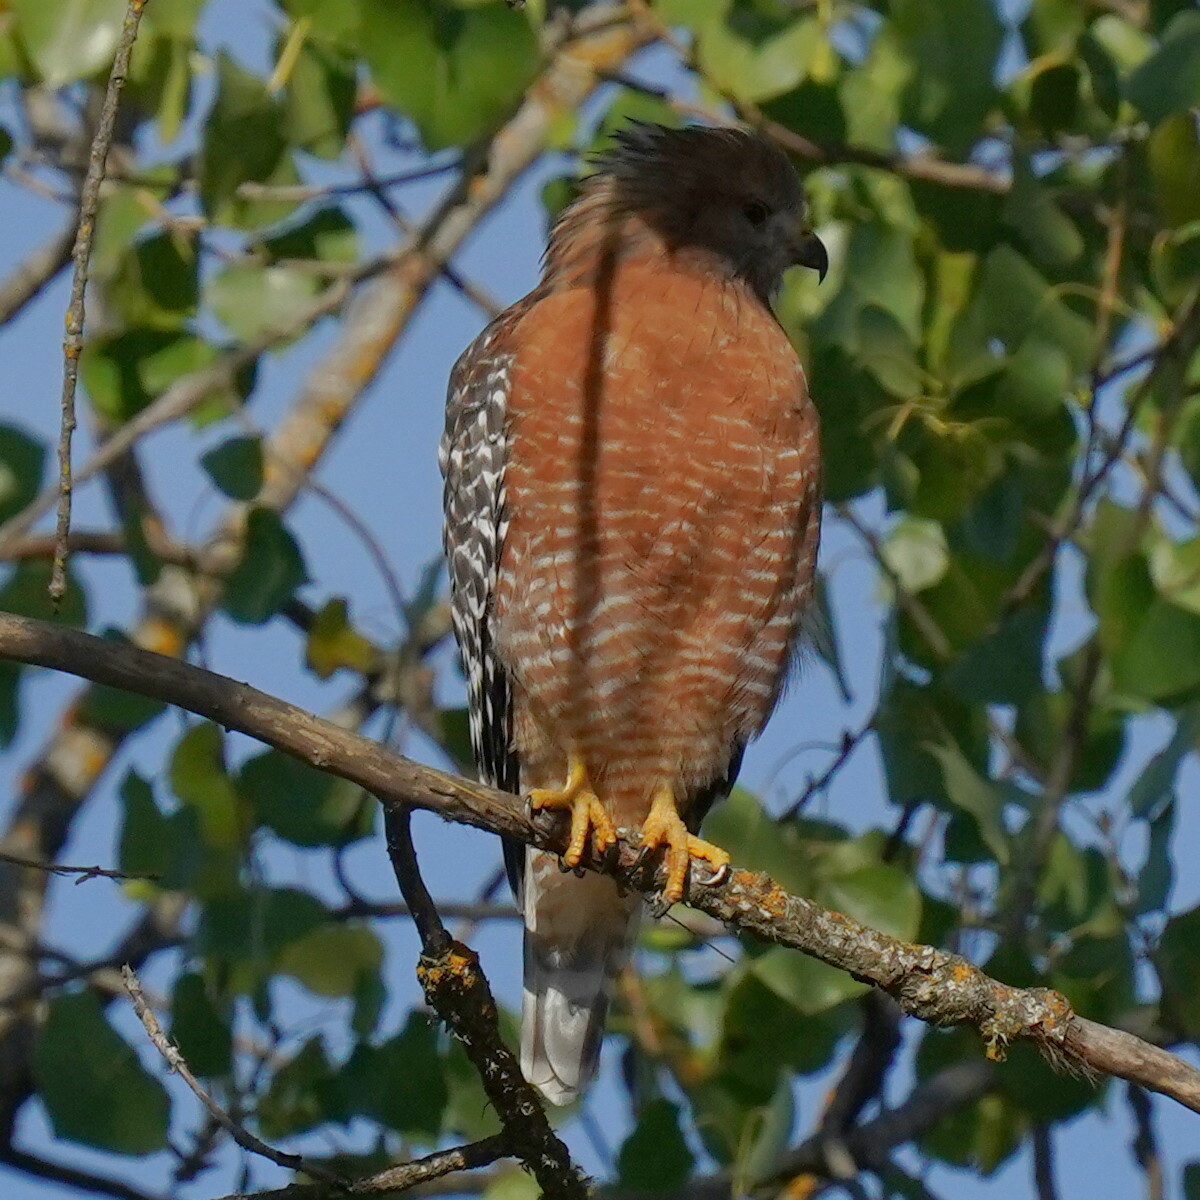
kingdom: Animalia
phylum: Chordata
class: Aves
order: Accipitriformes
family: Accipitridae
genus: Buteo
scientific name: Buteo lineatus
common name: Red-shouldered hawk
